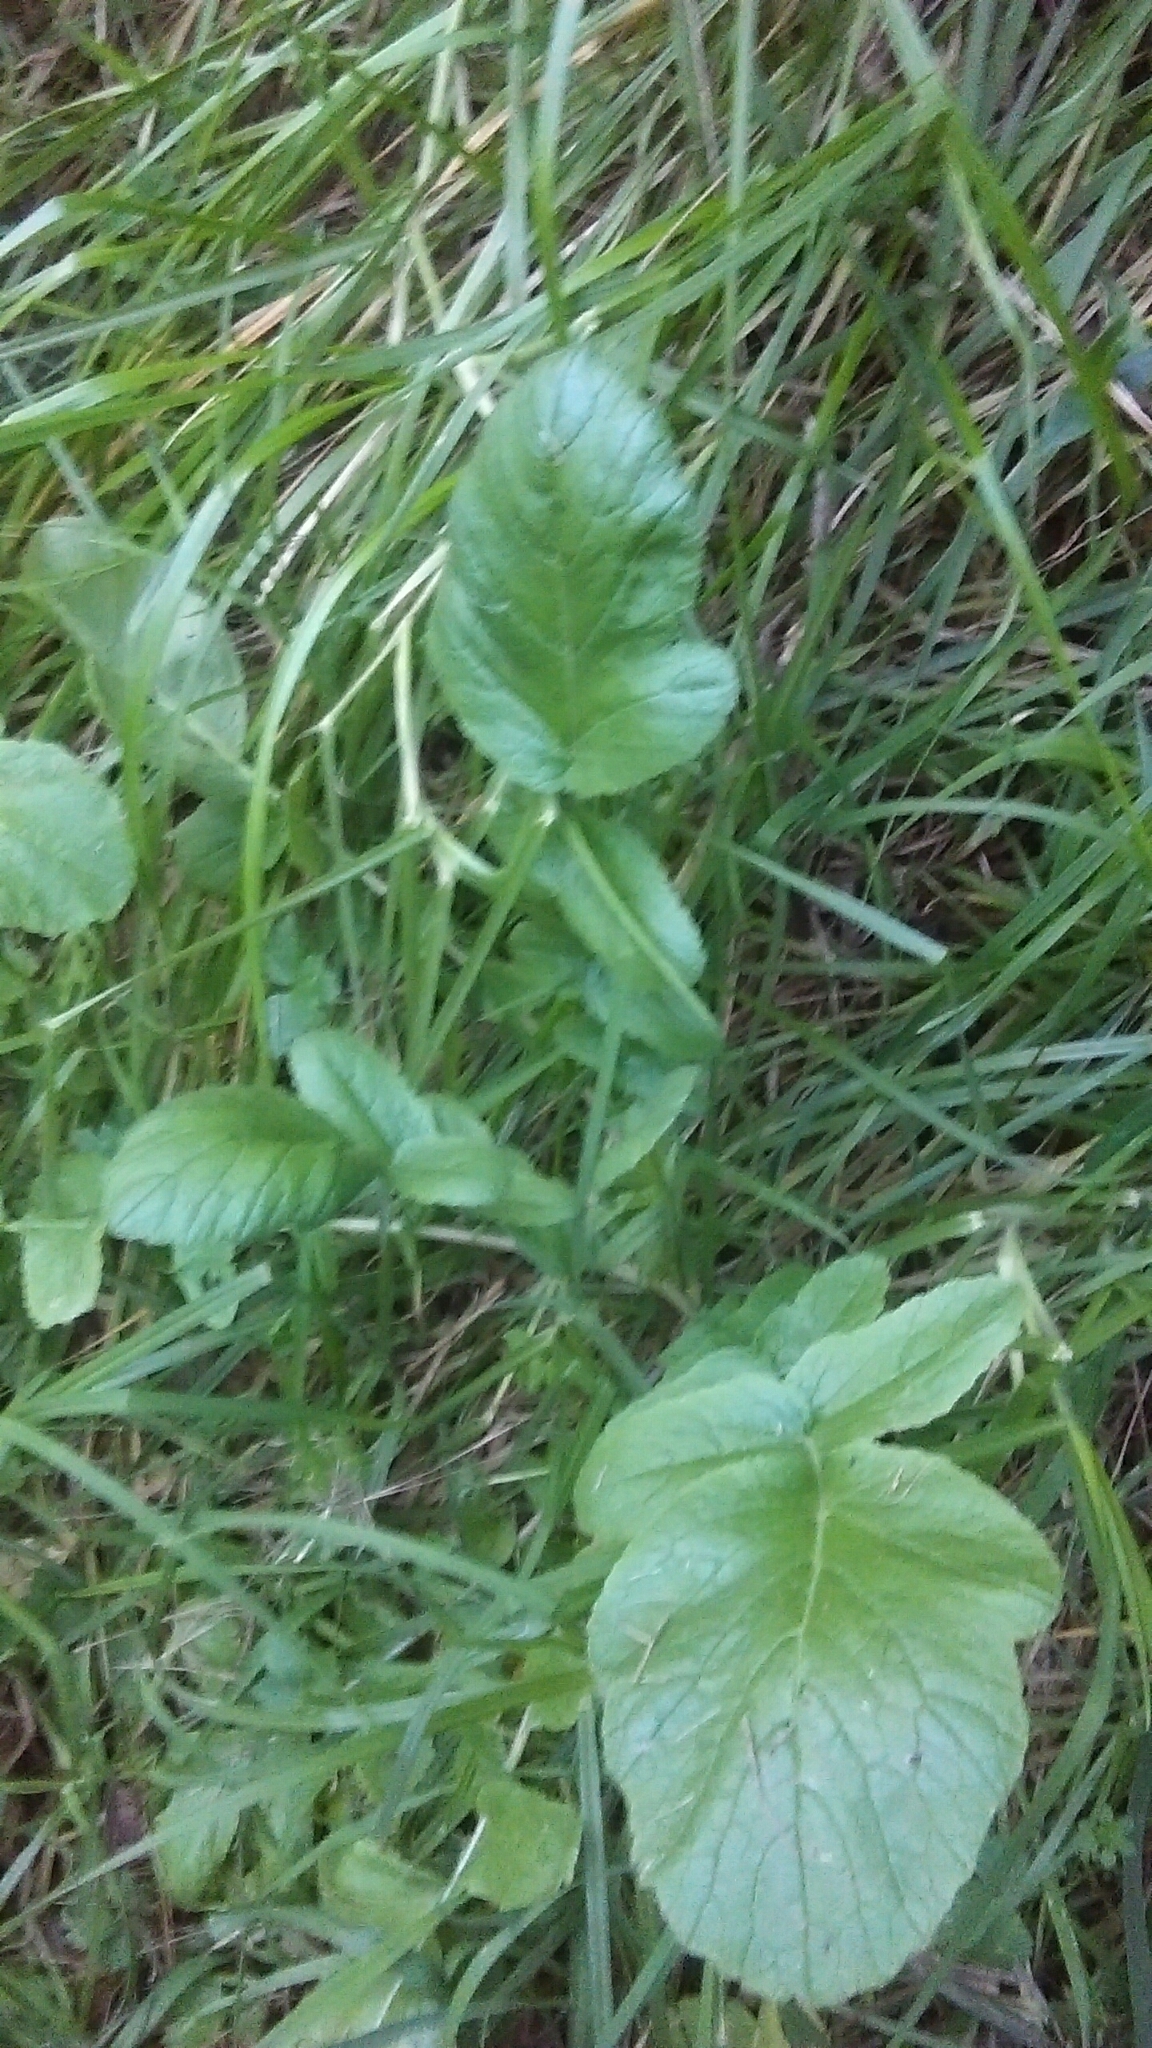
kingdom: Plantae
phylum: Tracheophyta
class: Magnoliopsida
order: Brassicales
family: Brassicaceae
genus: Raphanus
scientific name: Raphanus raphanistrum
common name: Wild radish
